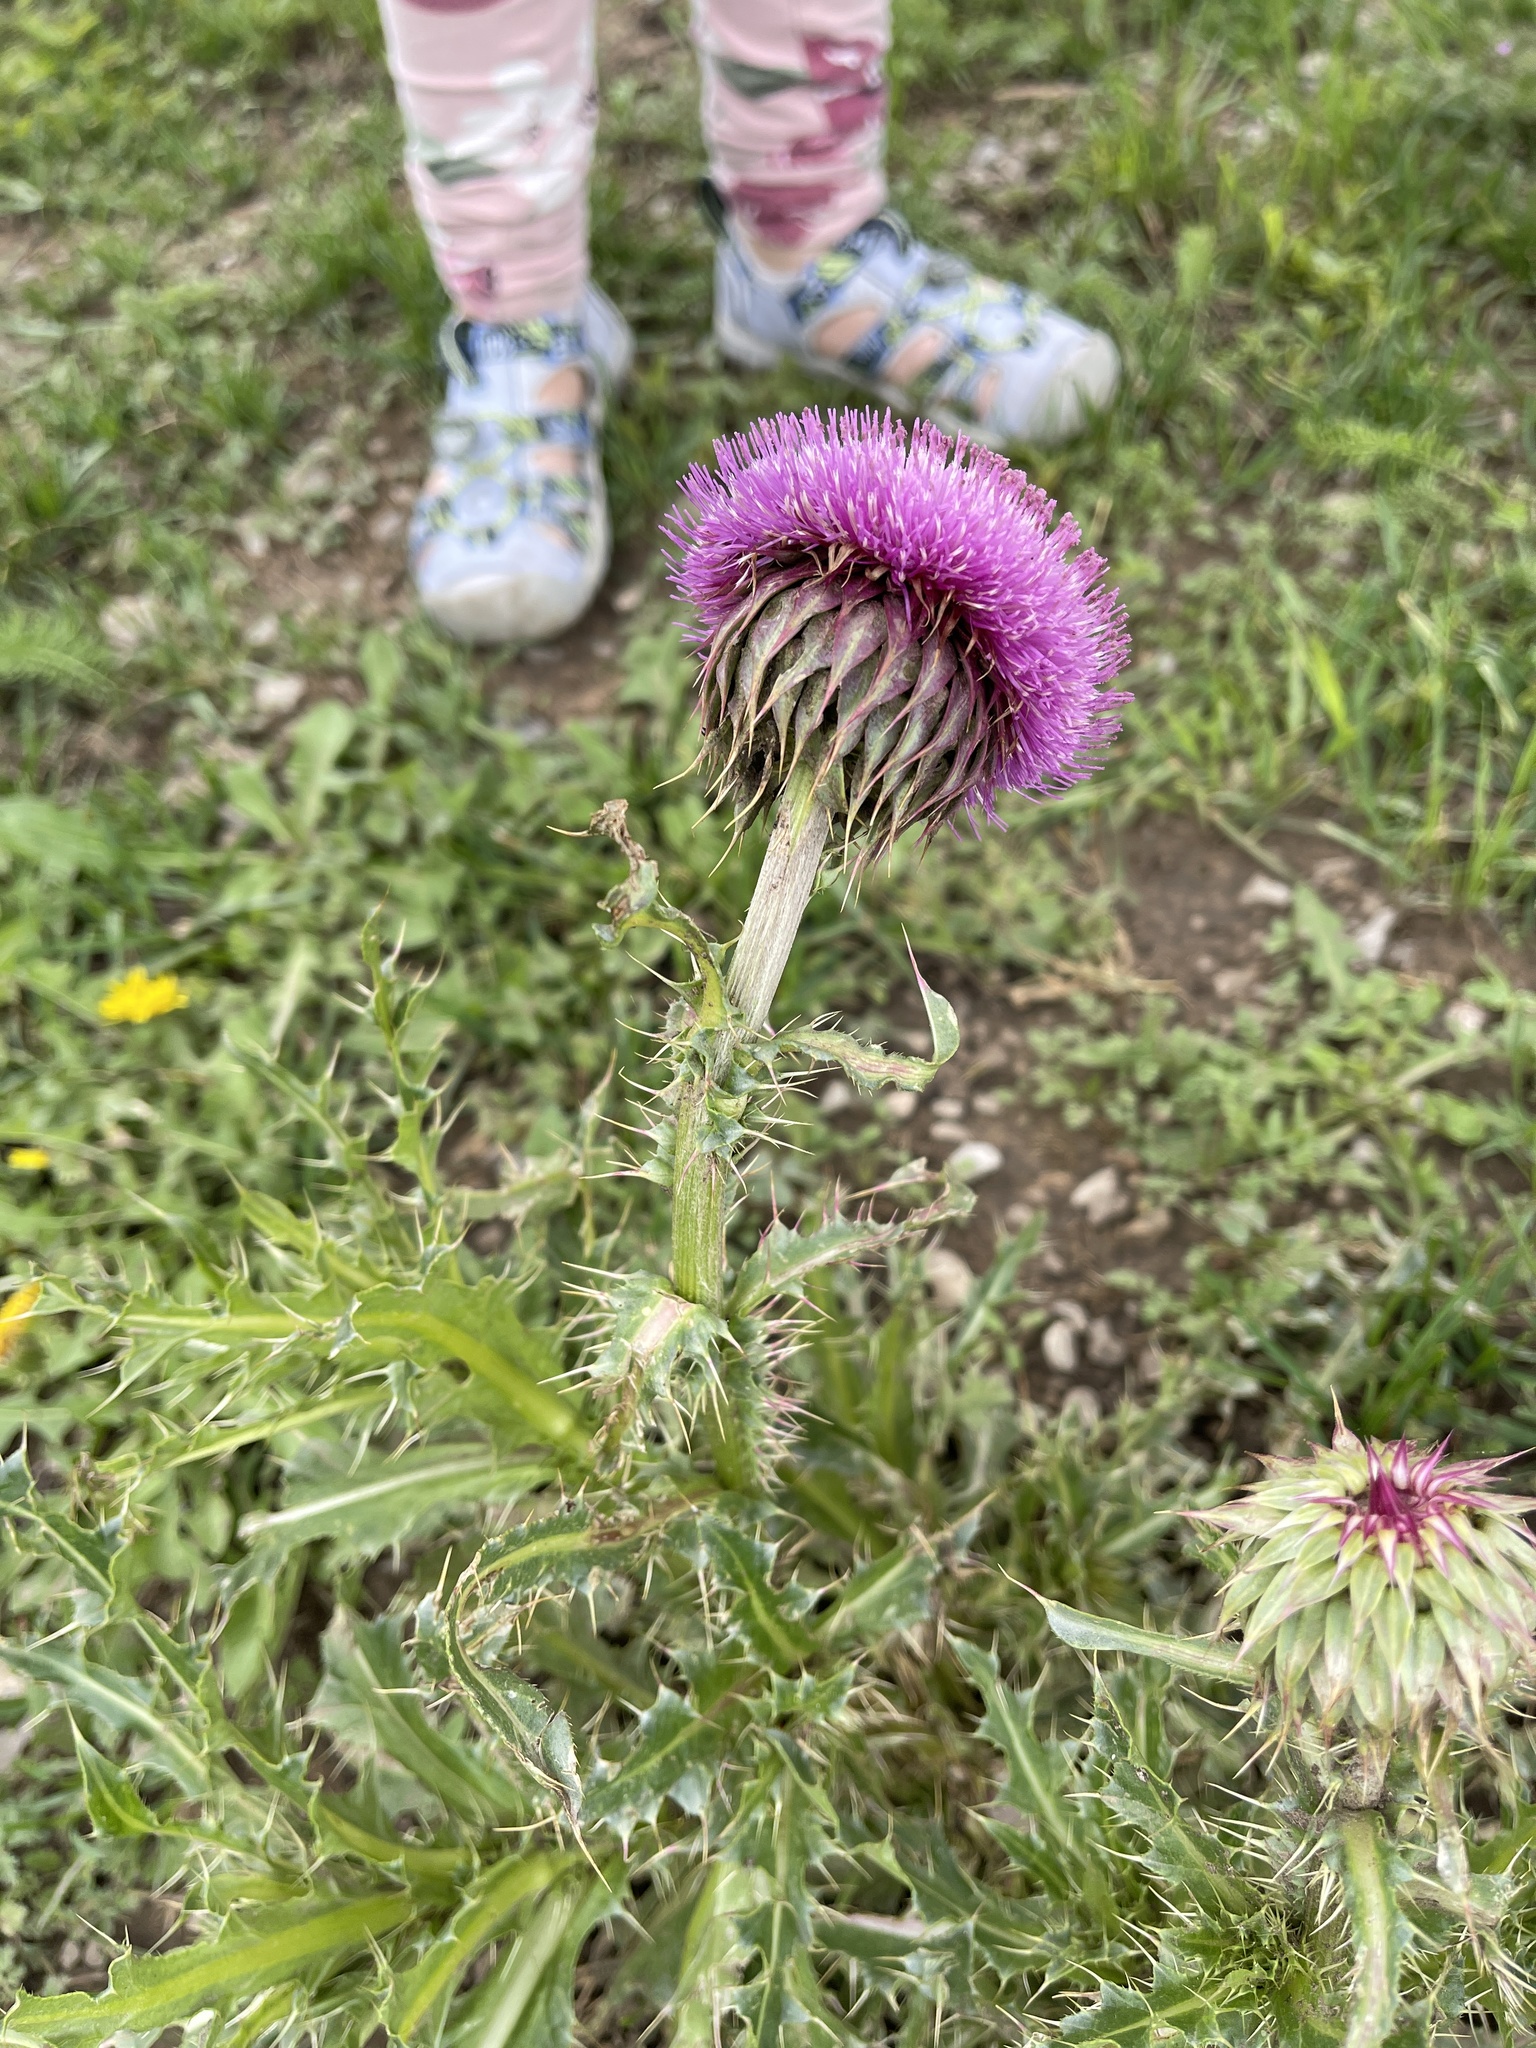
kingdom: Plantae
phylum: Tracheophyta
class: Magnoliopsida
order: Asterales
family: Asteraceae
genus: Carduus
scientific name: Carduus nutans
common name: Musk thistle
